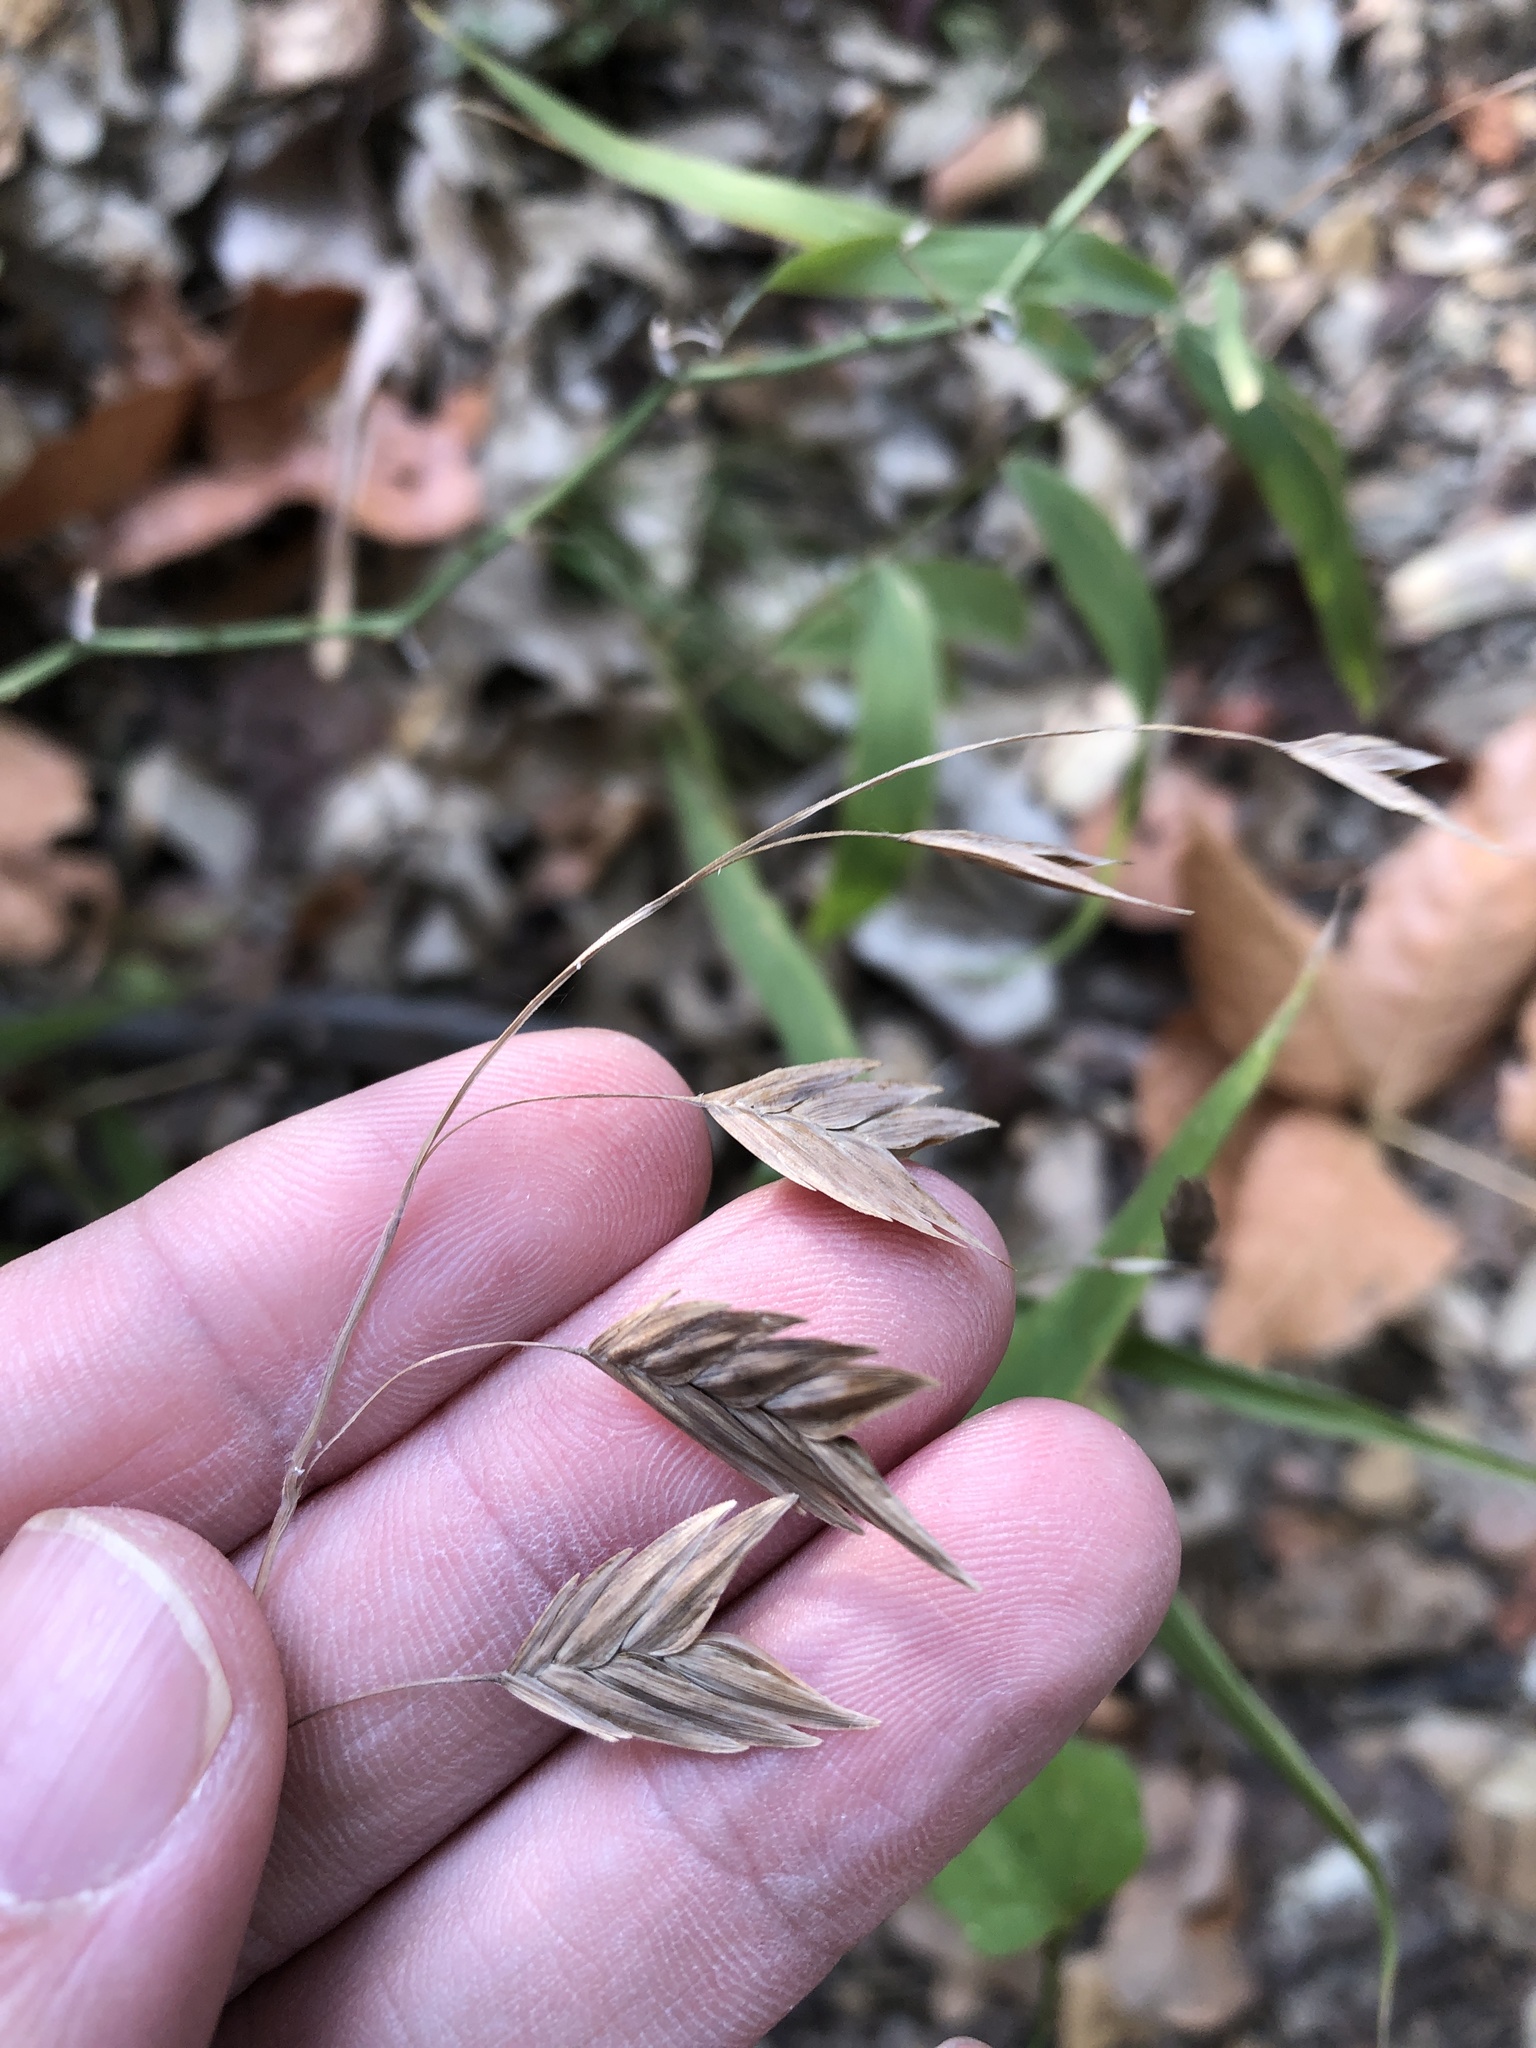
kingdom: Plantae
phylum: Tracheophyta
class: Liliopsida
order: Poales
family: Poaceae
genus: Chasmanthium
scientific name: Chasmanthium latifolium
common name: Broad-leaved chasmanthium
